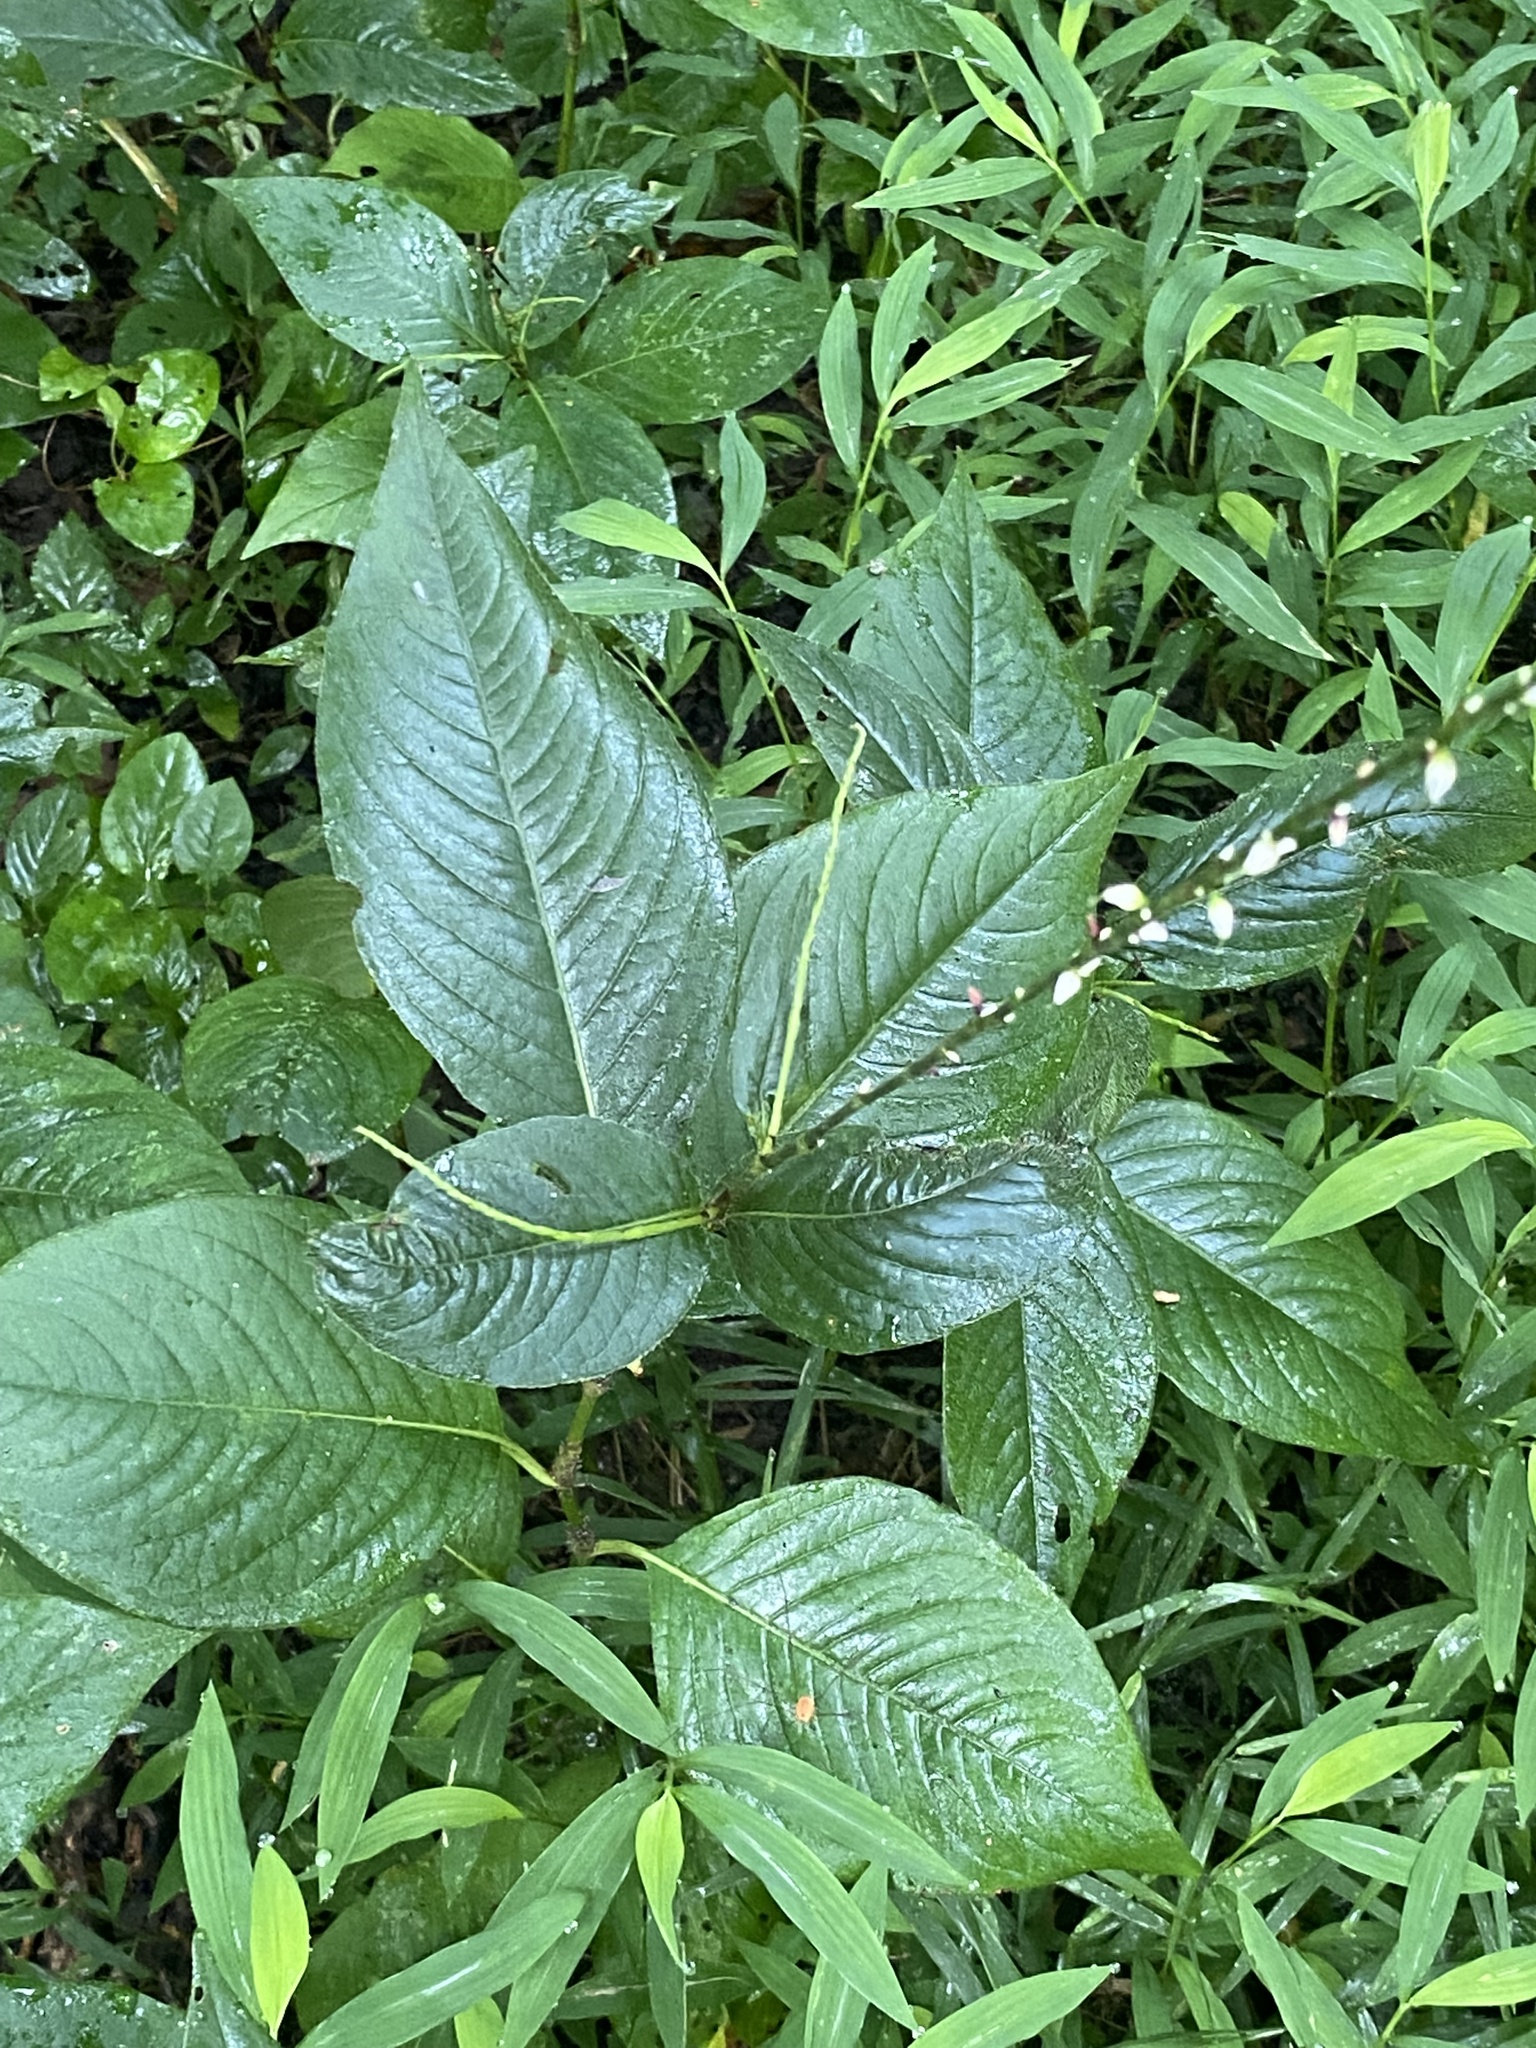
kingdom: Plantae
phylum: Tracheophyta
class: Magnoliopsida
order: Caryophyllales
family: Polygonaceae
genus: Persicaria
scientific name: Persicaria virginiana
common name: Jumpseed
